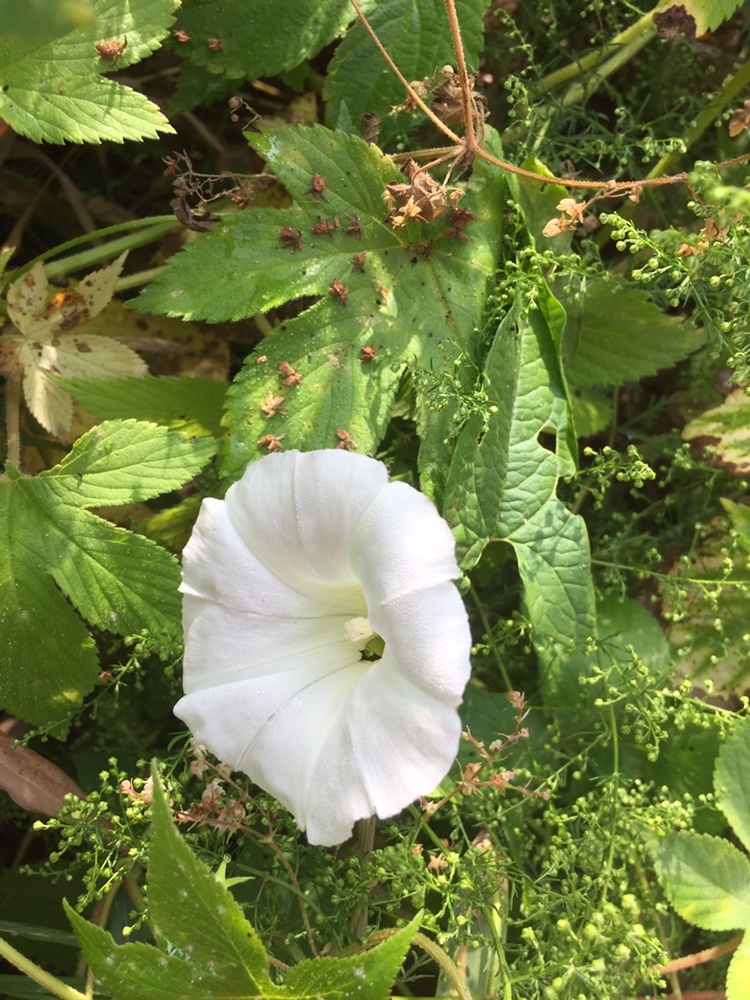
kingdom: Plantae
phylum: Tracheophyta
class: Magnoliopsida
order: Solanales
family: Convolvulaceae
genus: Calystegia
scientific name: Calystegia sepium
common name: Hedge bindweed
